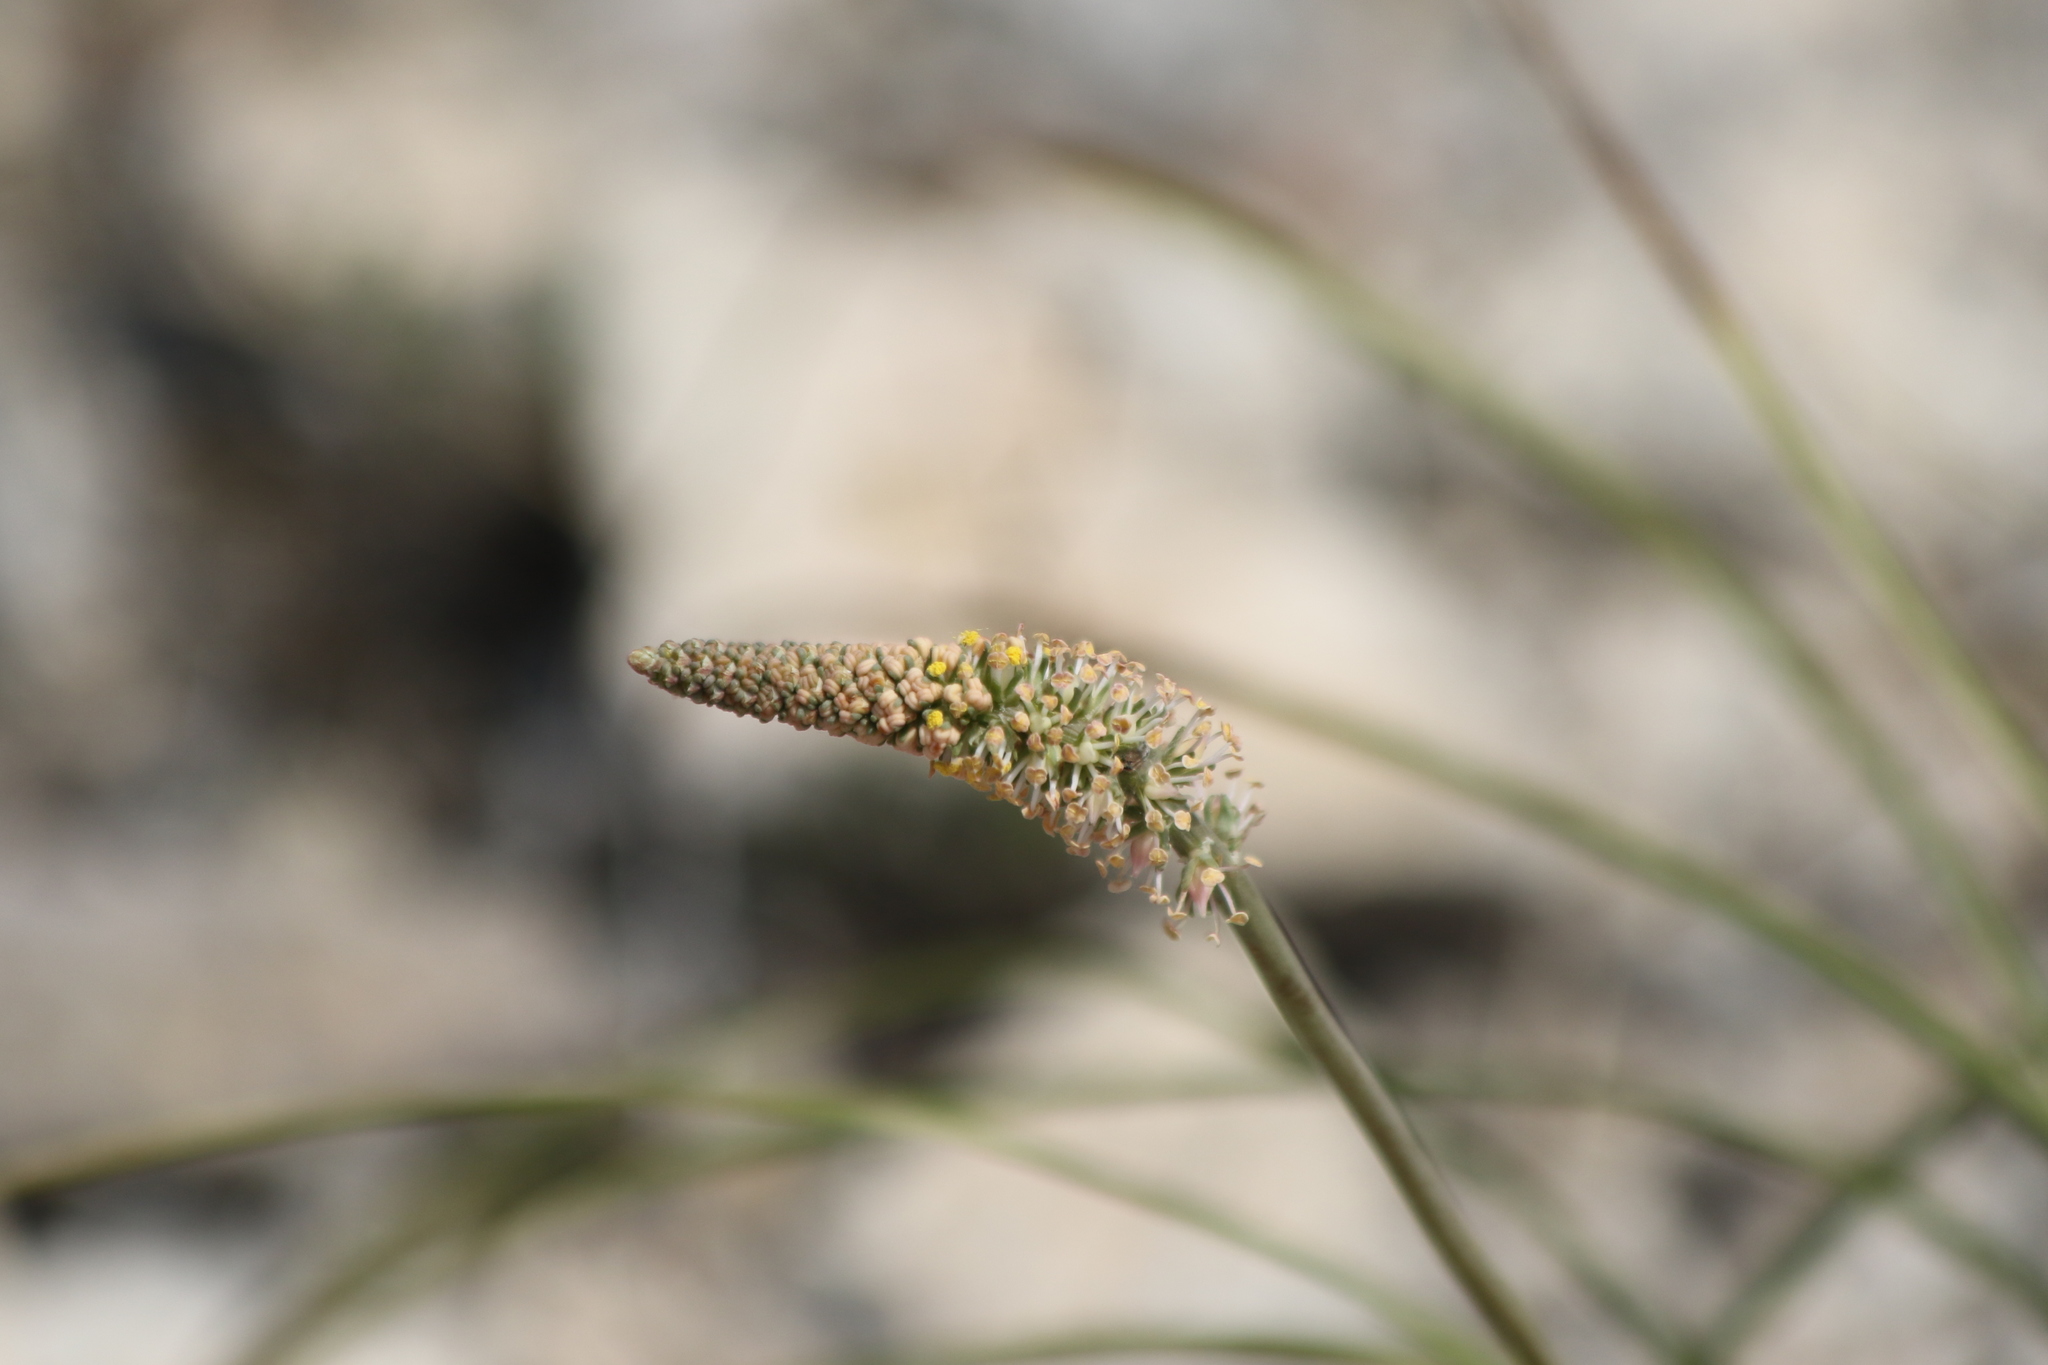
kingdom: Plantae
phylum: Tracheophyta
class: Liliopsida
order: Liliales
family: Melanthiaceae
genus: Schoenocaulon
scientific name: Schoenocaulon texanum
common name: Texas feather-shank
